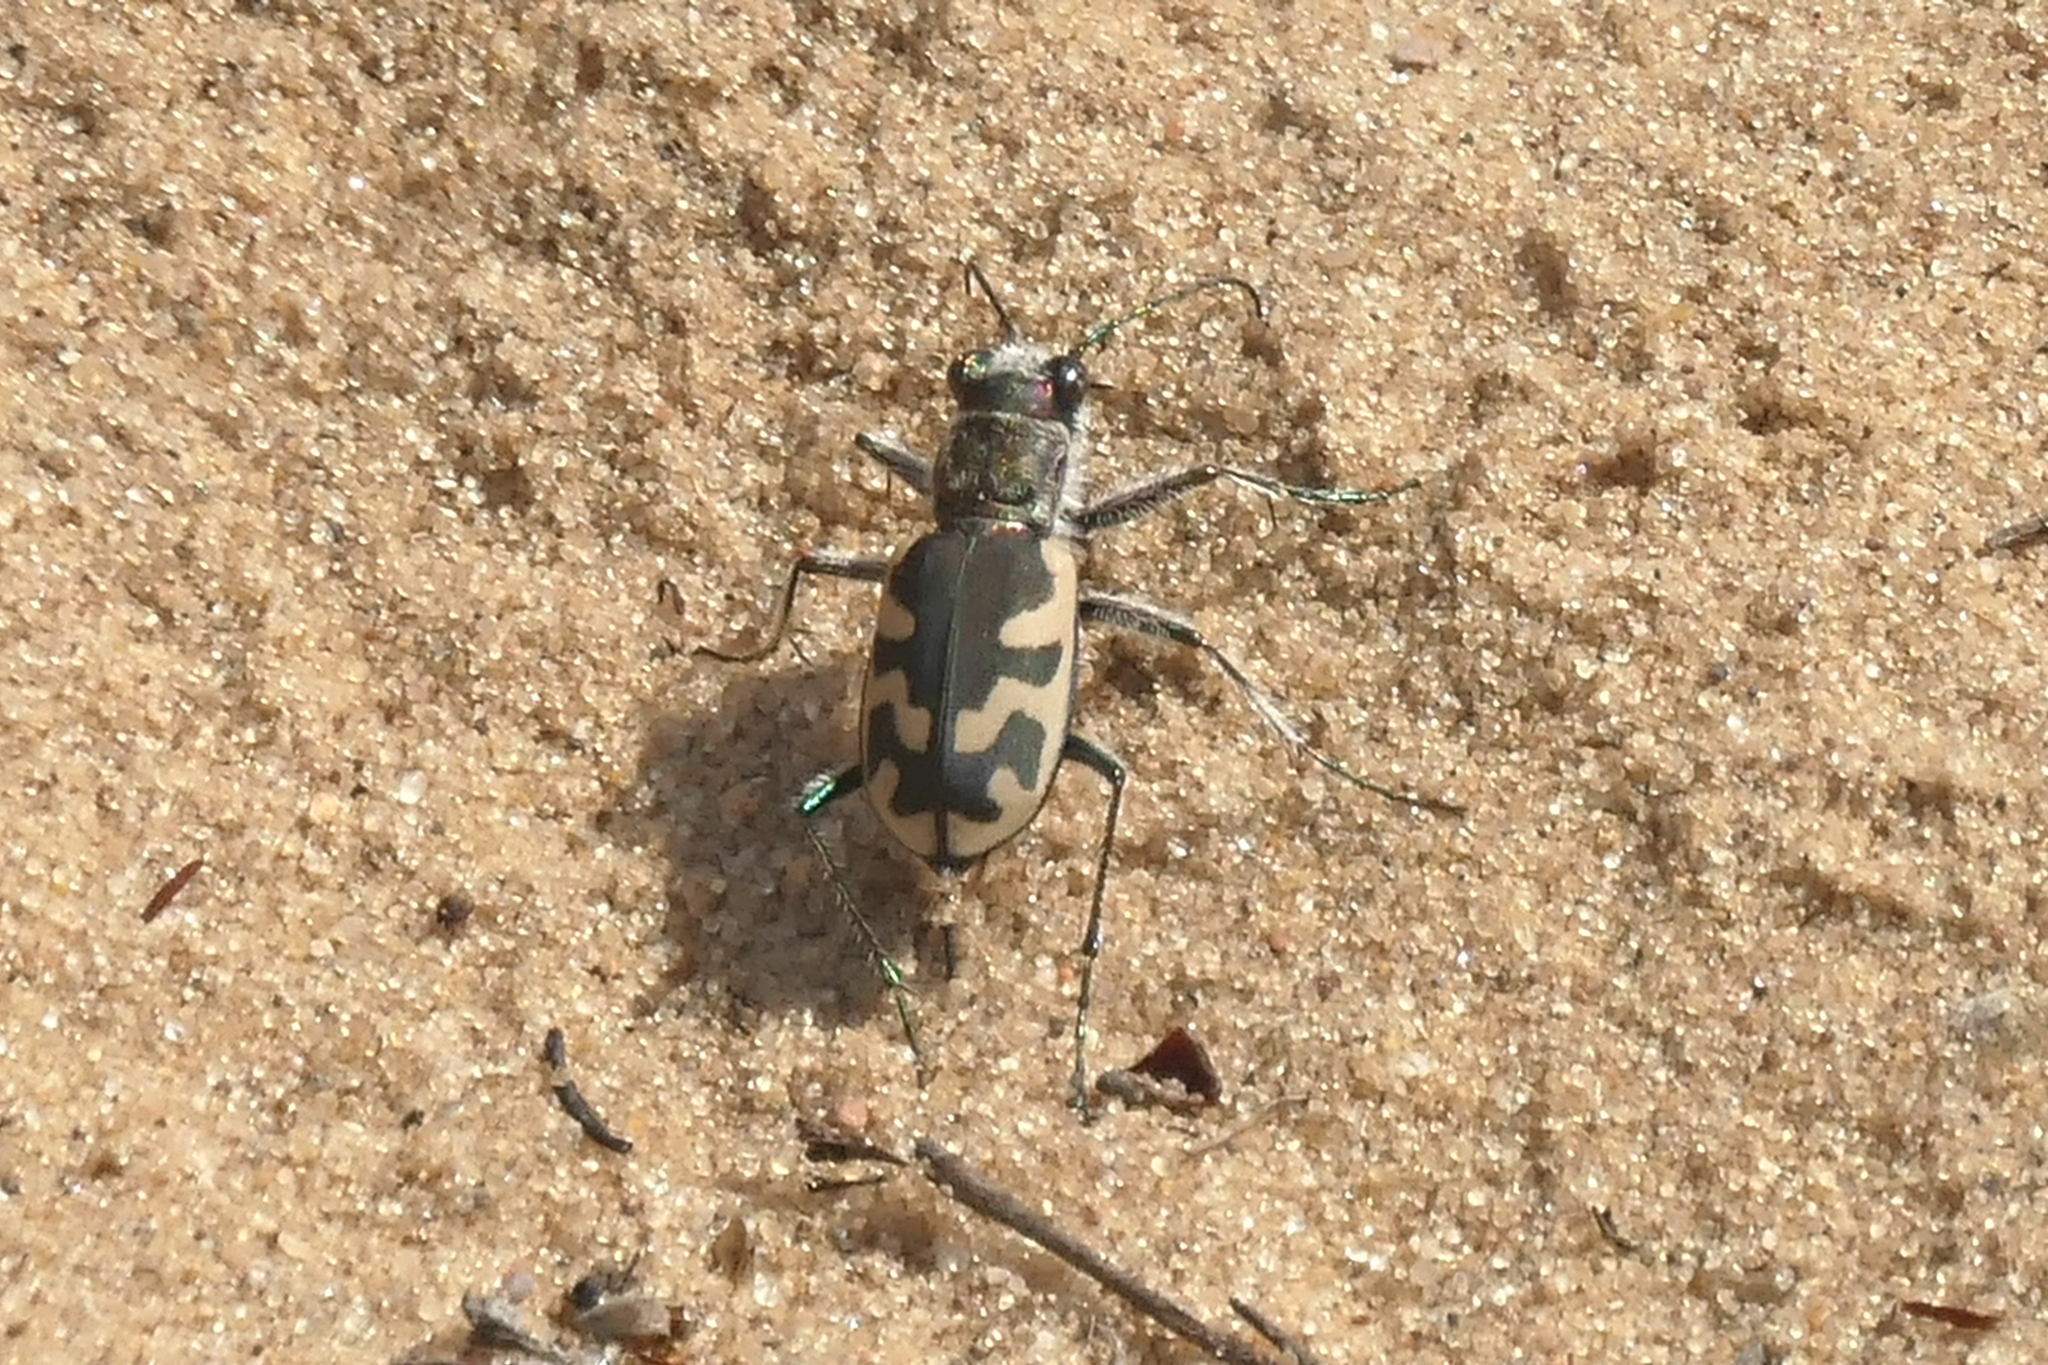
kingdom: Animalia
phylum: Arthropoda
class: Insecta
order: Coleoptera
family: Carabidae
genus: Cicindela
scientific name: Cicindela formosa
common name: Big sand tiger beetle
